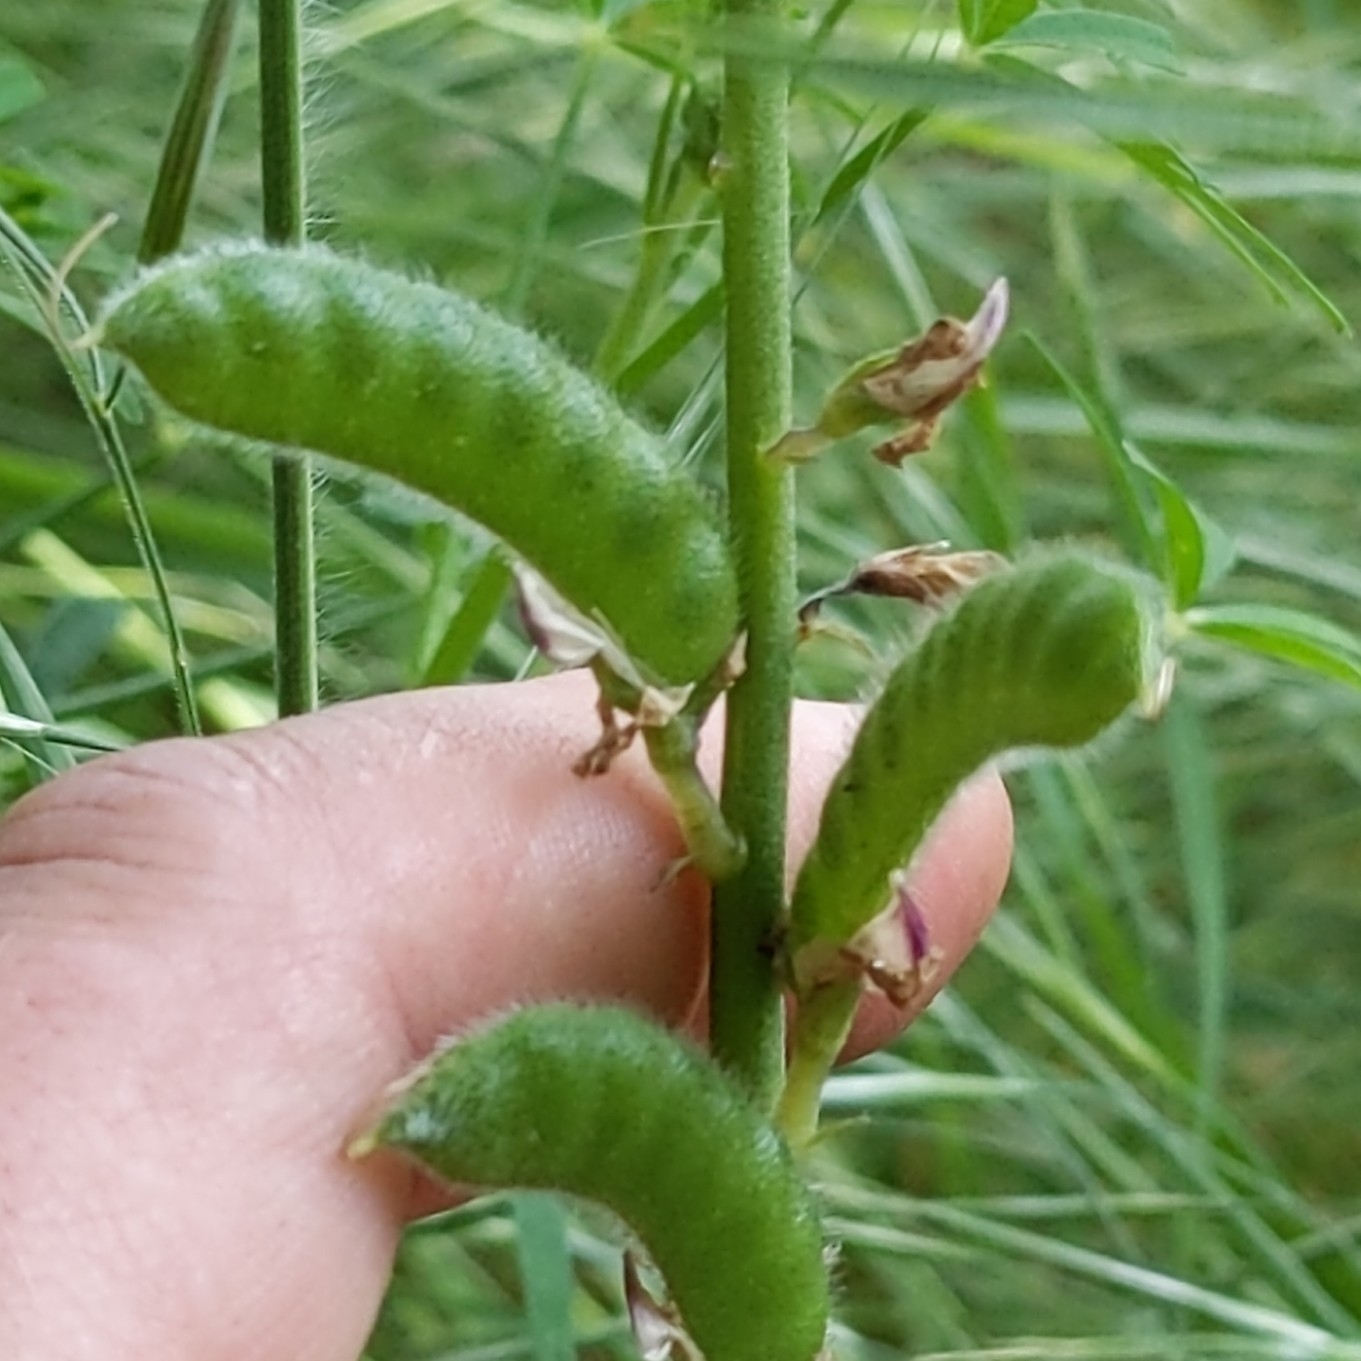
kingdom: Plantae
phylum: Tracheophyta
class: Magnoliopsida
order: Fabales
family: Fabaceae
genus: Lupinus
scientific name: Lupinus truncatus
